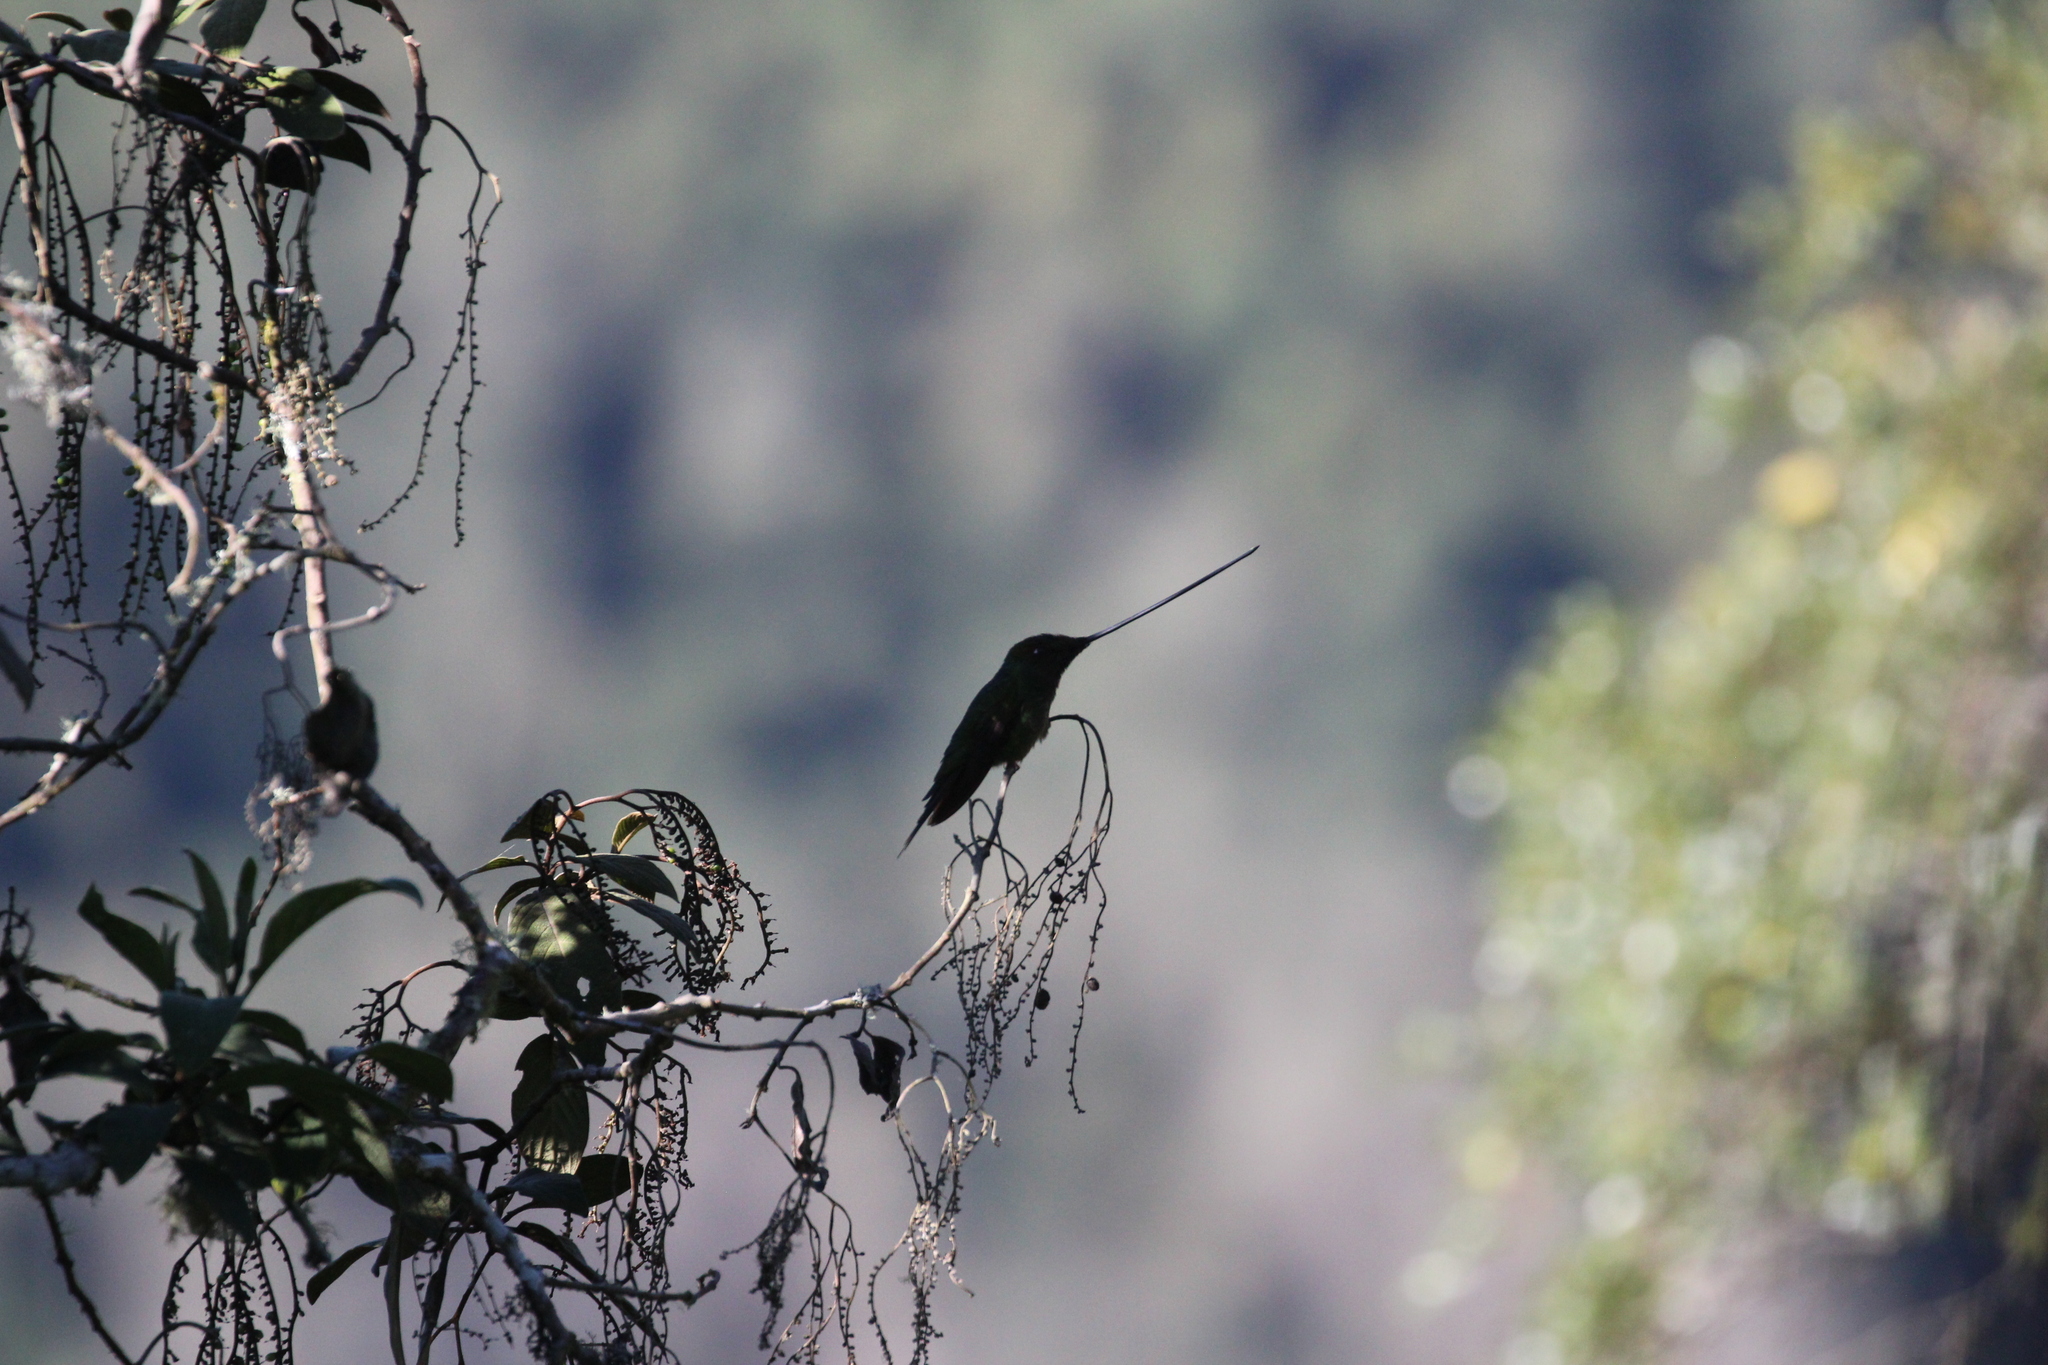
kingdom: Animalia
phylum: Chordata
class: Aves
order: Apodiformes
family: Trochilidae
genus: Ensifera
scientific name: Ensifera ensifera
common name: Sword-billed hummingbird
